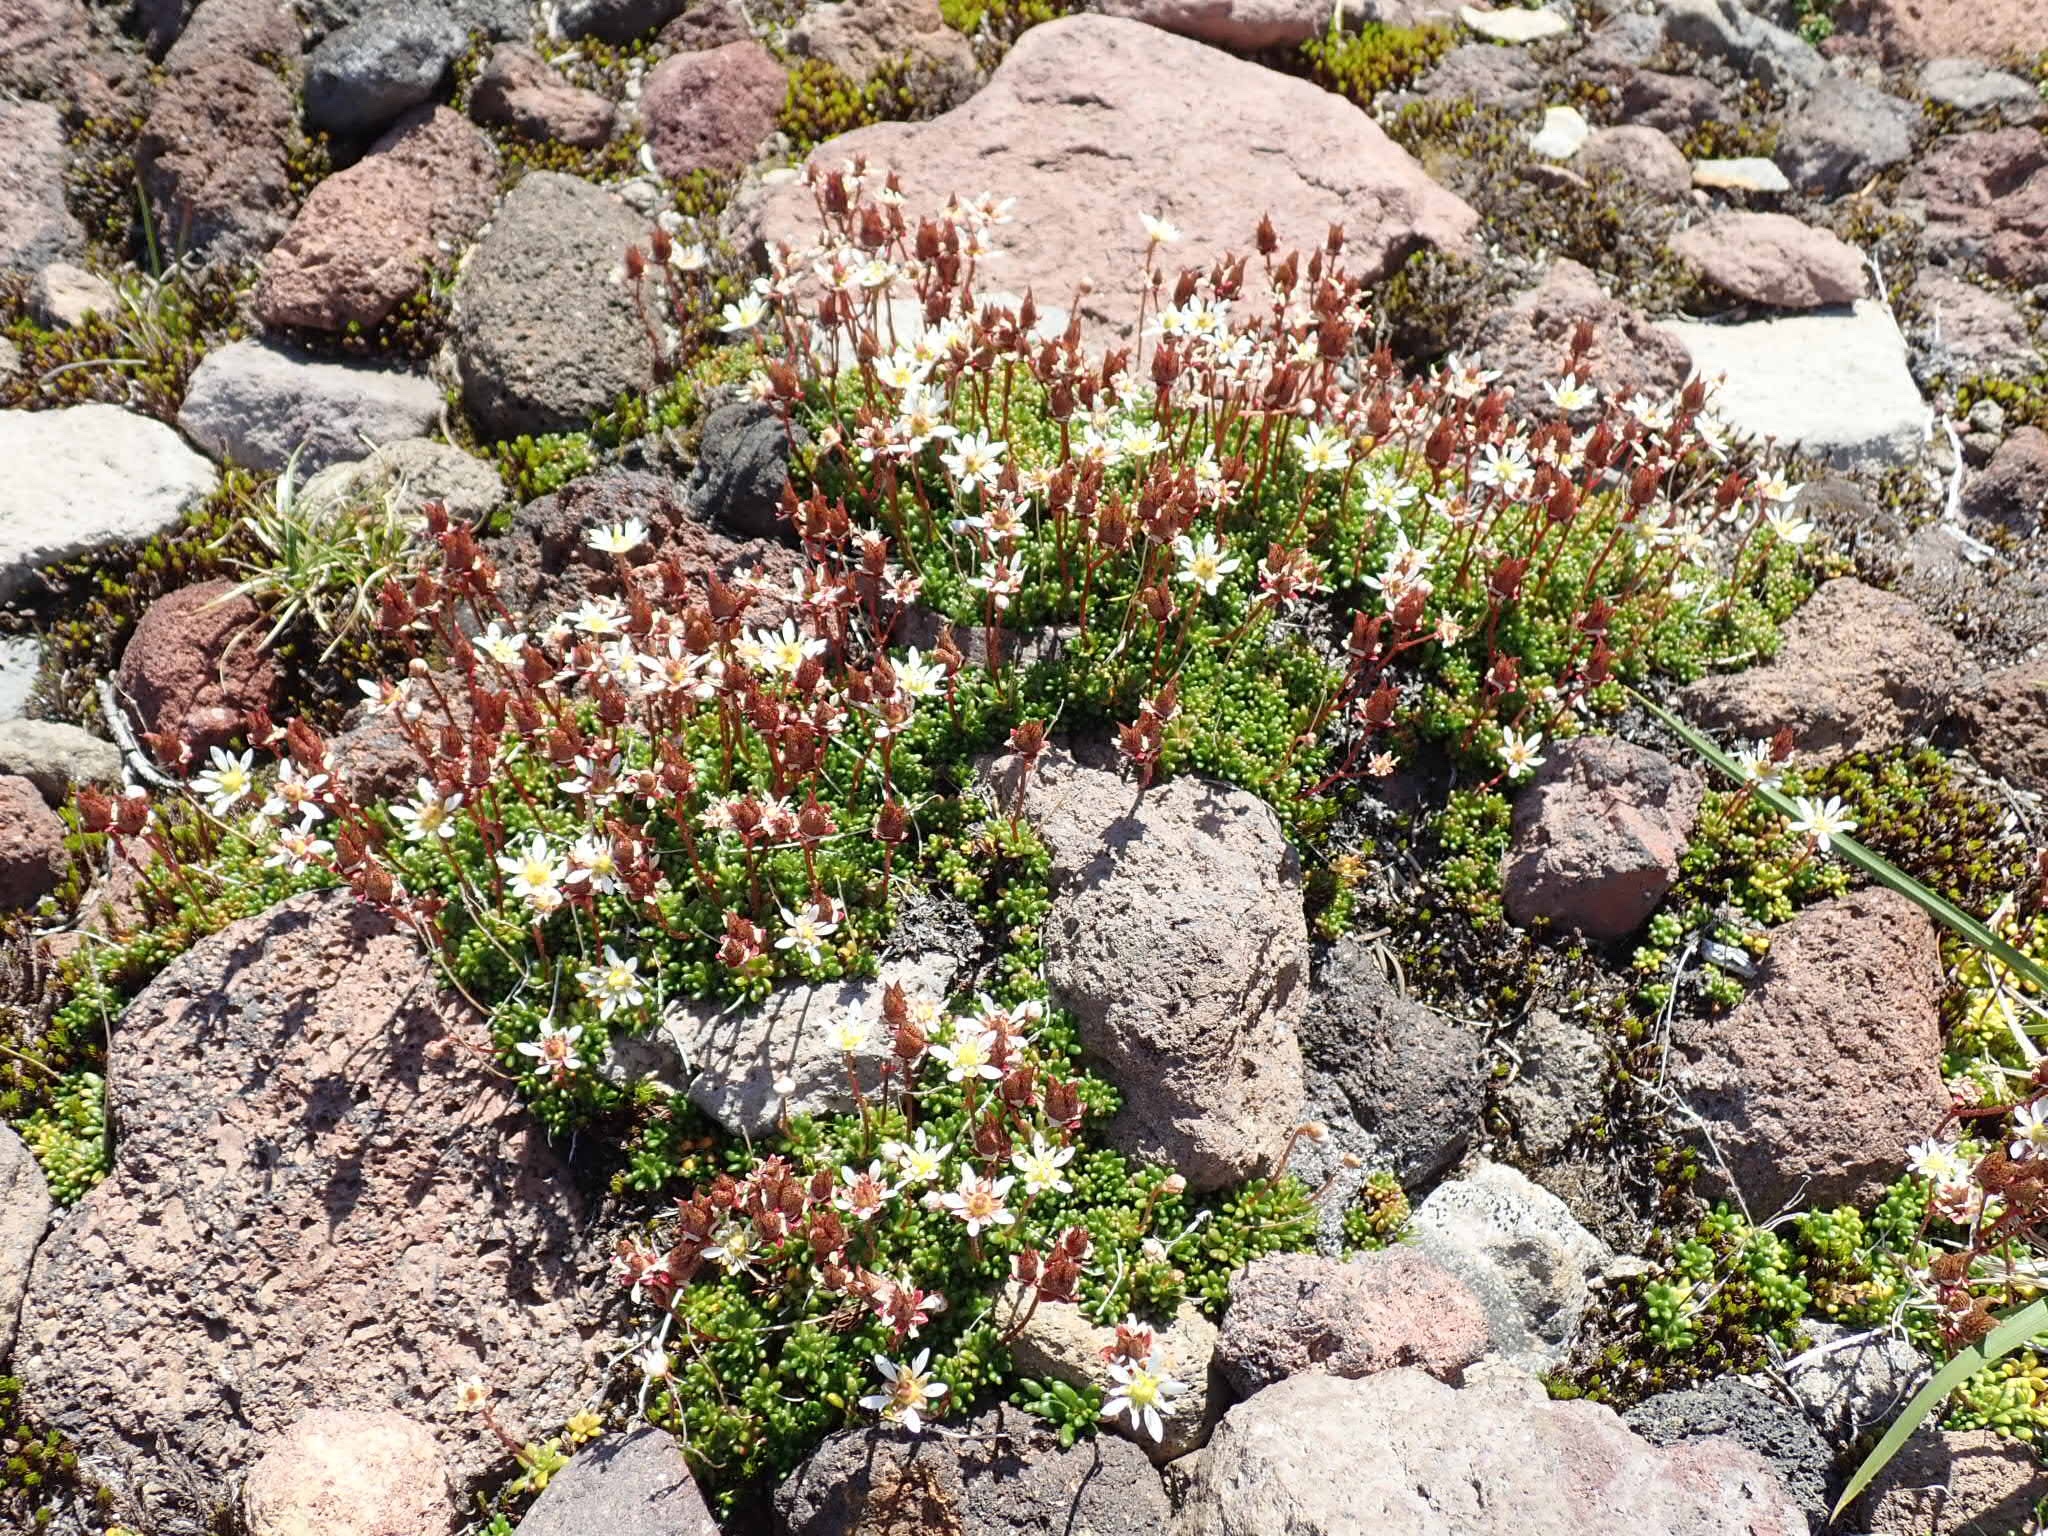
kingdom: Plantae
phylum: Tracheophyta
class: Magnoliopsida
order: Saxifragales
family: Saxifragaceae
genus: Micranthes
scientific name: Micranthes tolmiei
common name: Tolmie's saxifrage
